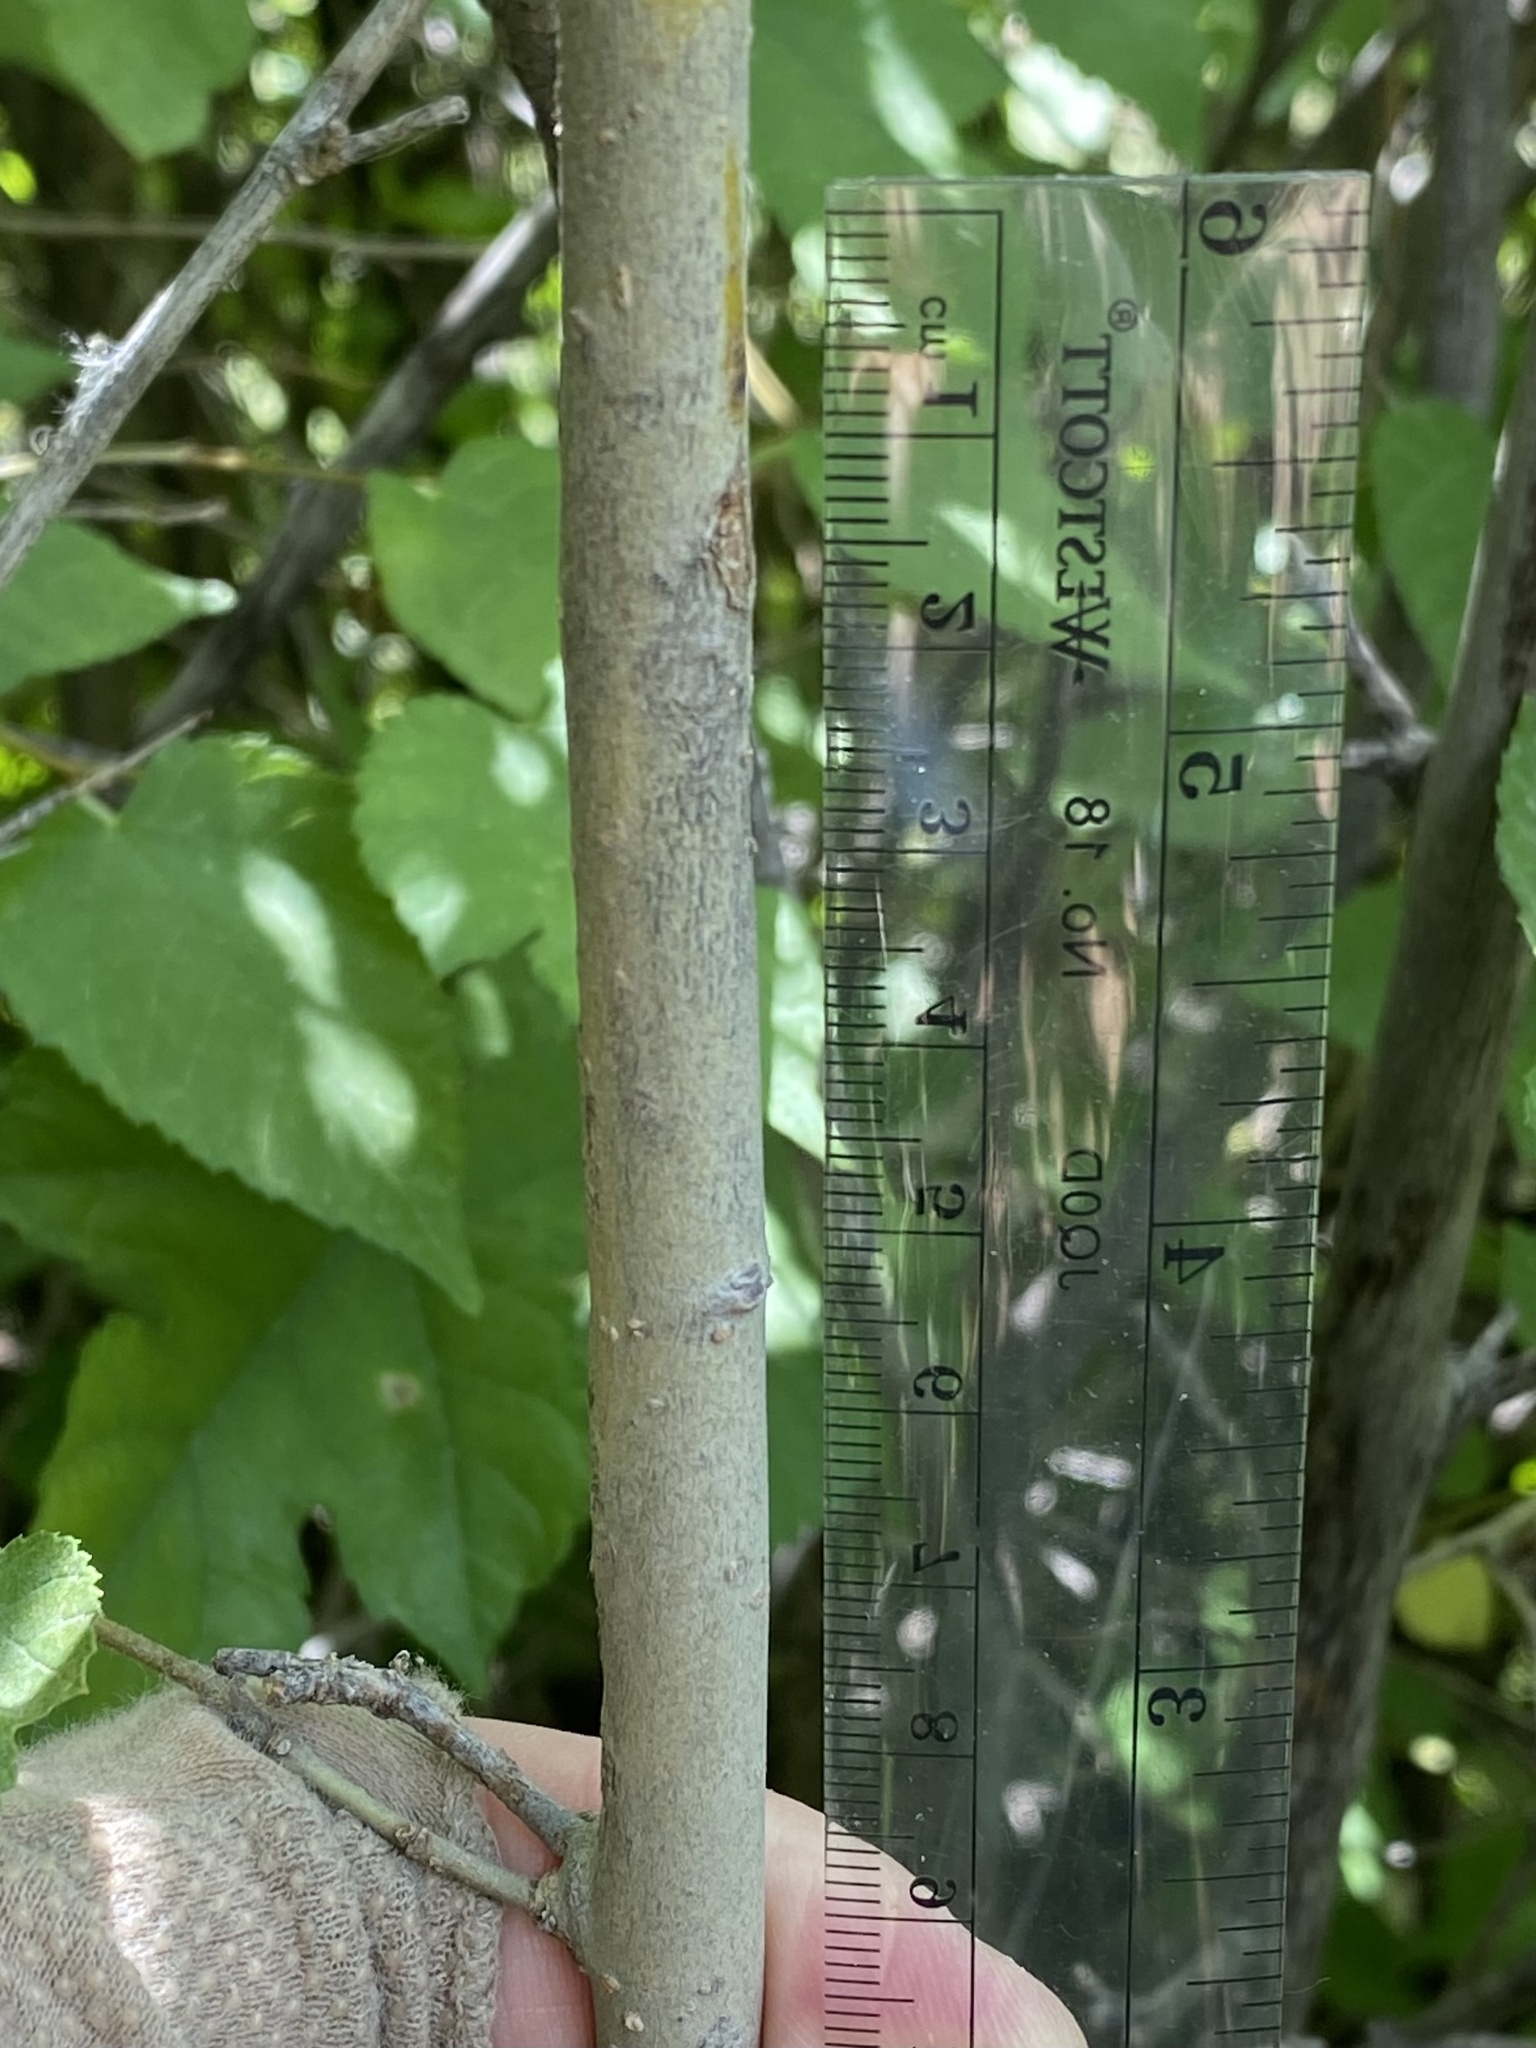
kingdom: Plantae
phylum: Tracheophyta
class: Magnoliopsida
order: Rosales
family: Moraceae
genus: Morus
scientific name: Morus microphylla
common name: Mexican mulberry
